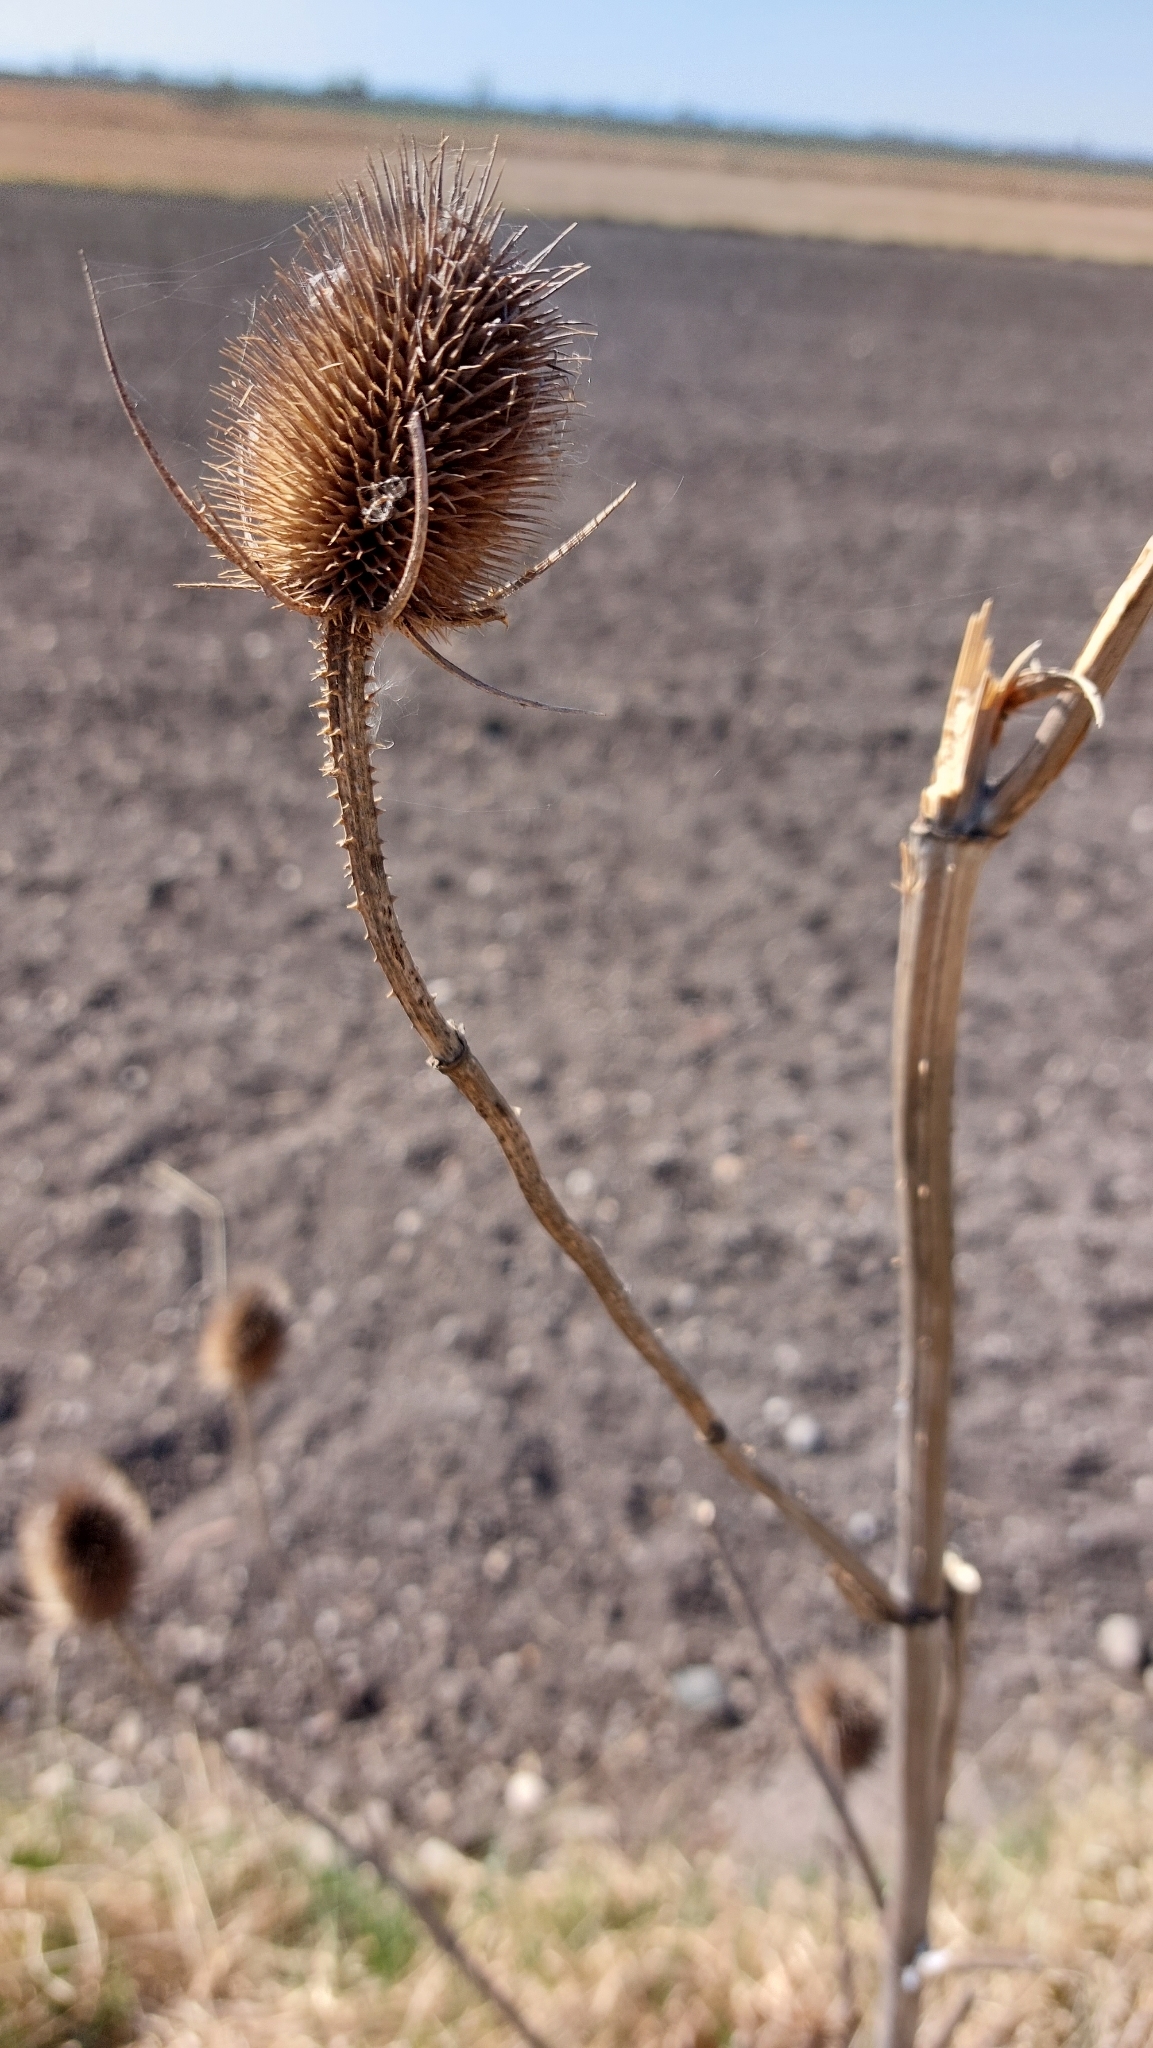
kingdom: Plantae
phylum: Tracheophyta
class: Magnoliopsida
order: Dipsacales
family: Caprifoliaceae
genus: Dipsacus
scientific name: Dipsacus fullonum
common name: Teasel
